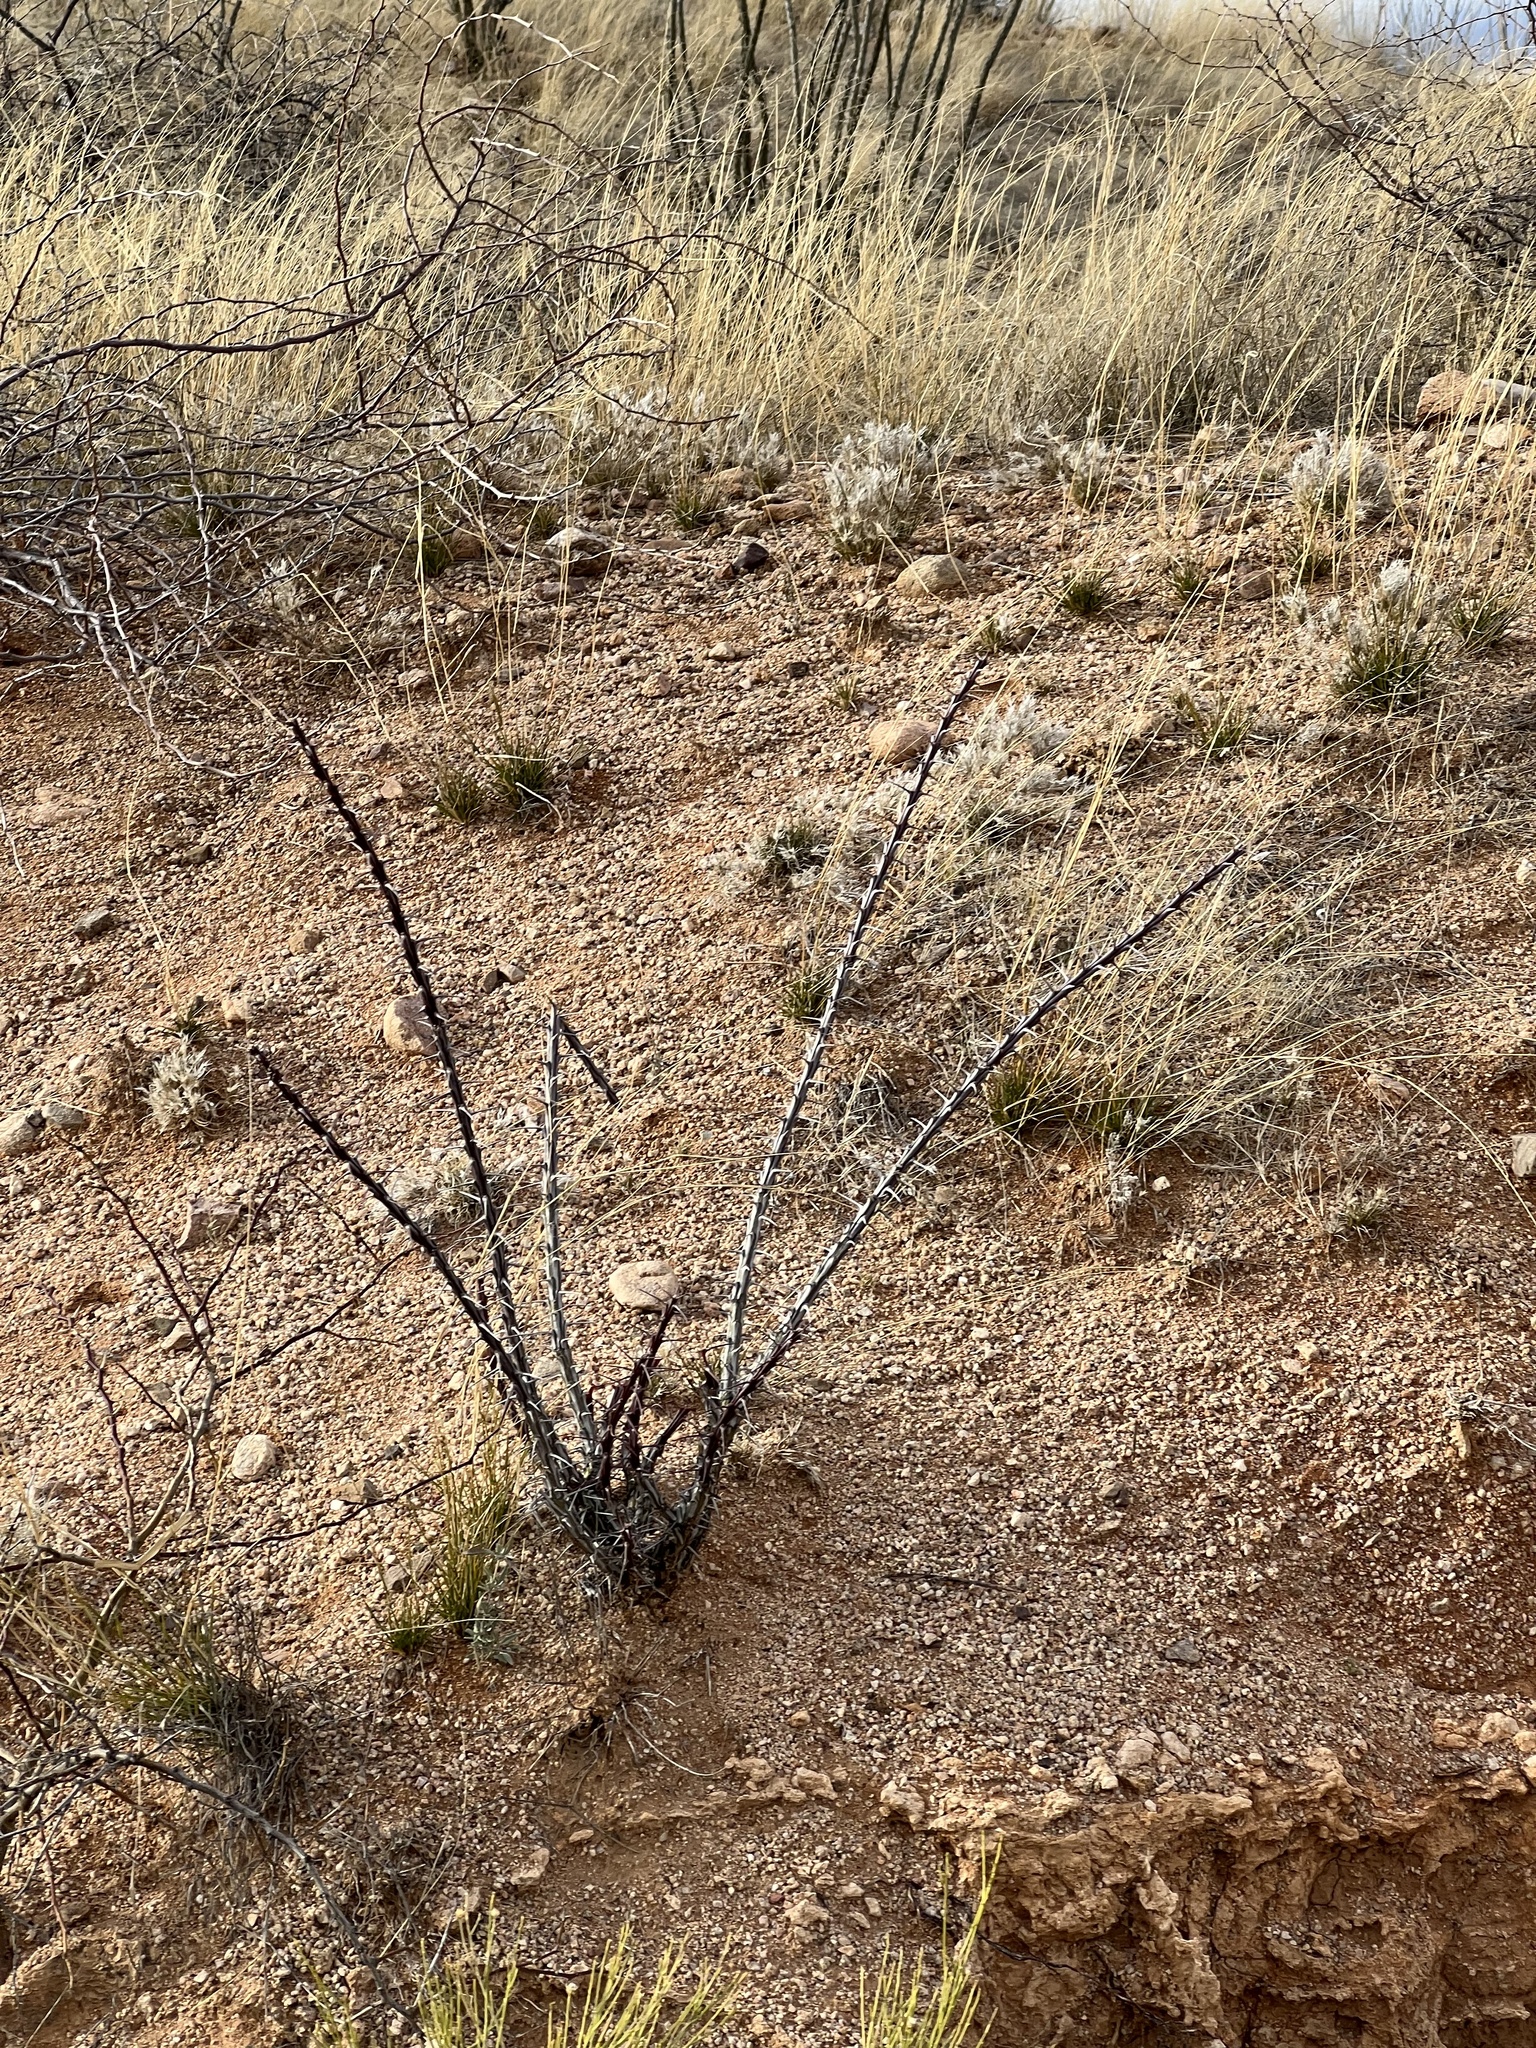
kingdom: Plantae
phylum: Tracheophyta
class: Magnoliopsida
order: Ericales
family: Fouquieriaceae
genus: Fouquieria
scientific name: Fouquieria splendens
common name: Vine-cactus
